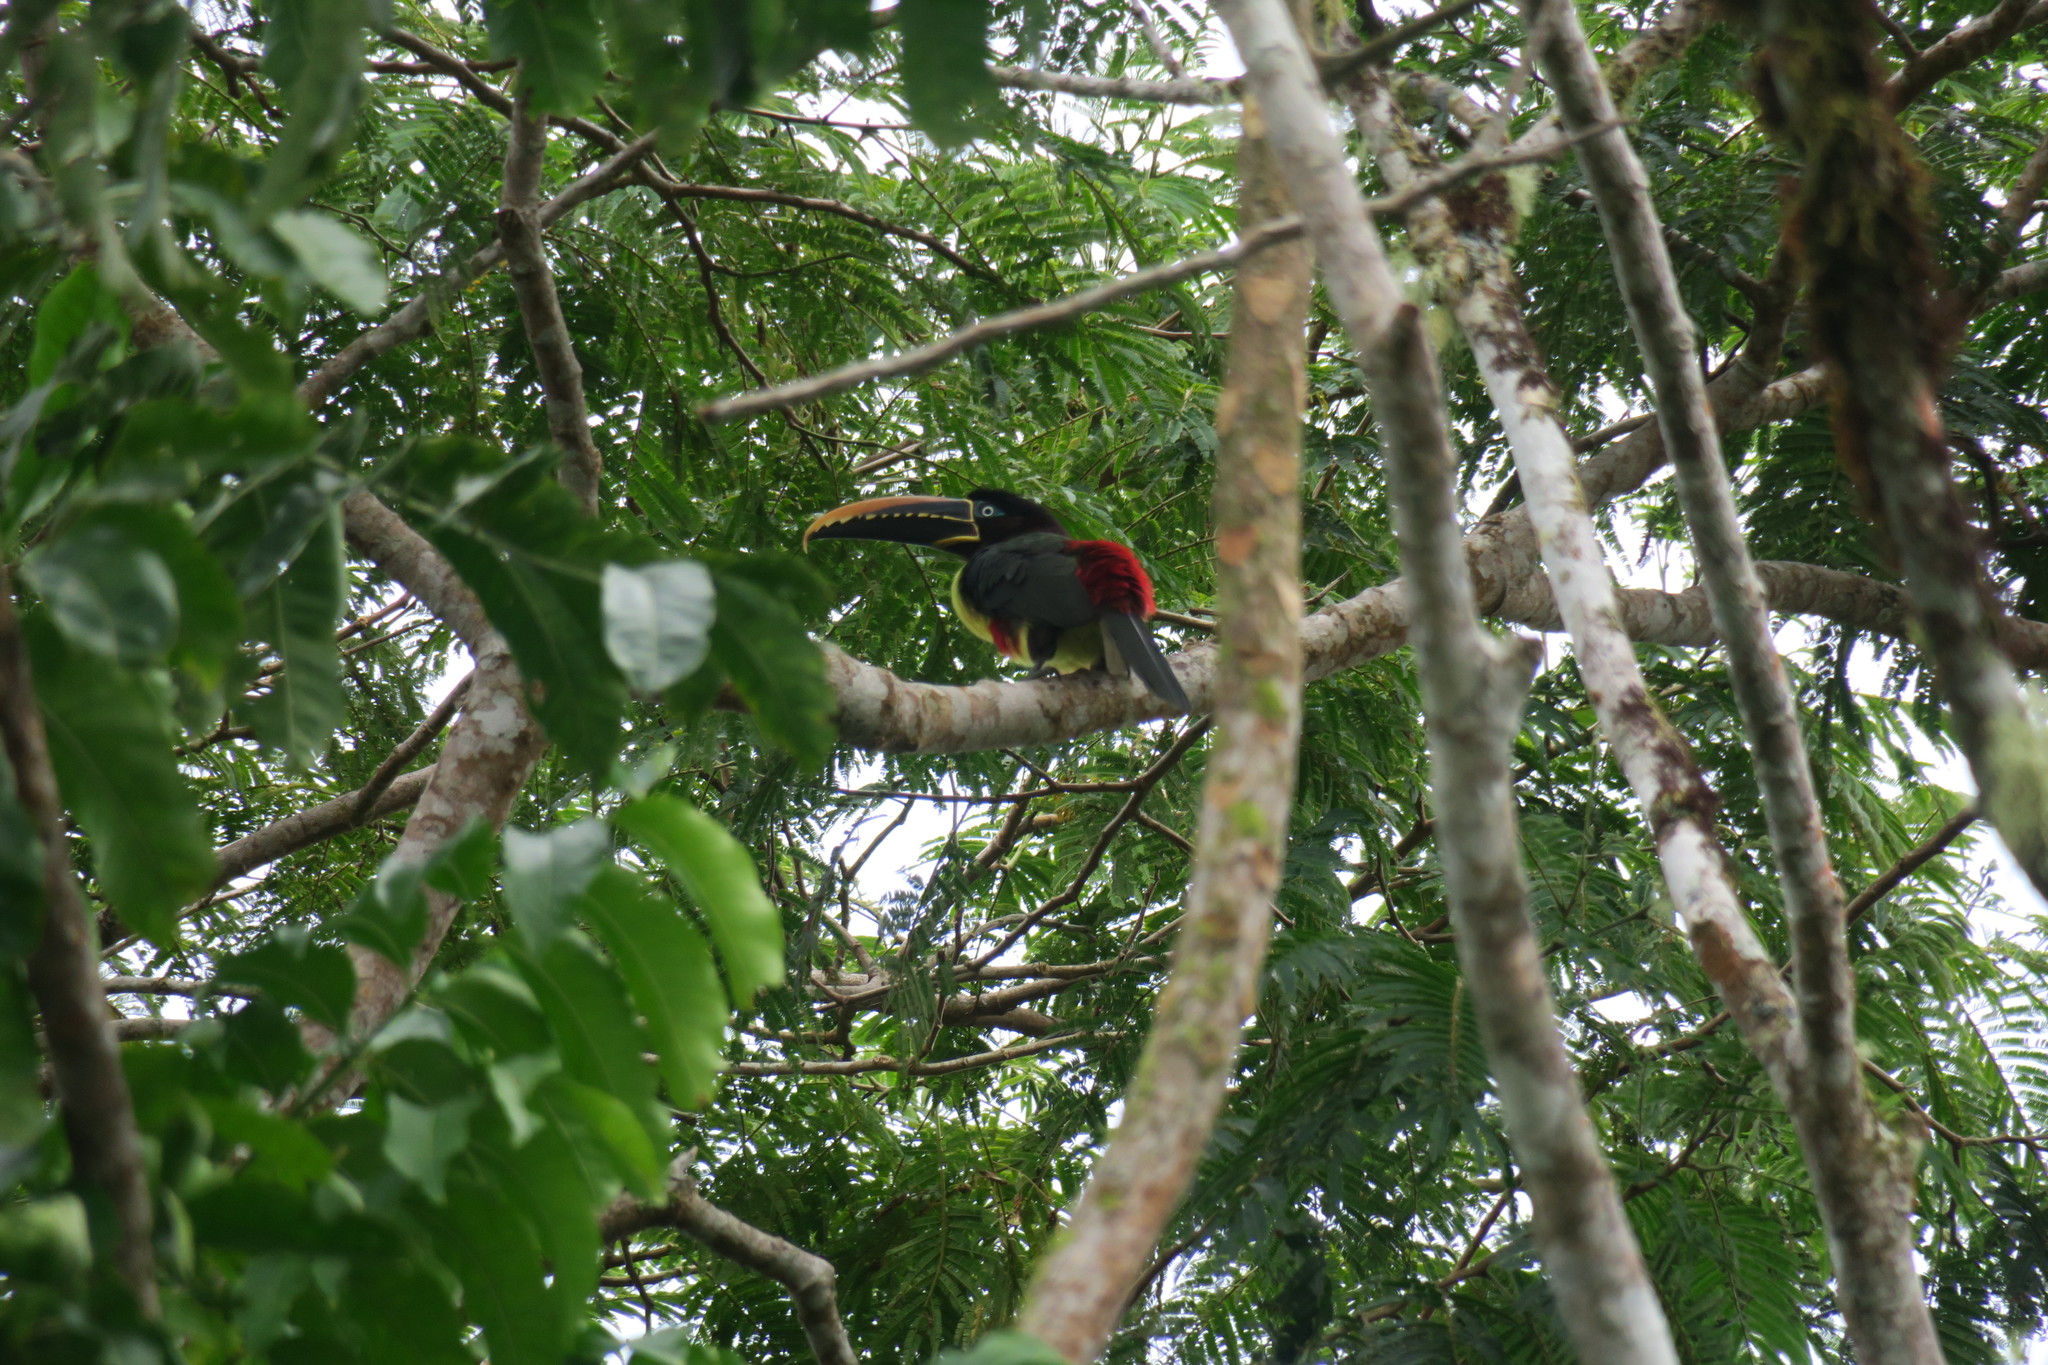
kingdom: Animalia
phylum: Chordata
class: Aves
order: Piciformes
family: Ramphastidae
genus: Pteroglossus
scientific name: Pteroglossus castanotis
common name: Chestnut-eared aracari
